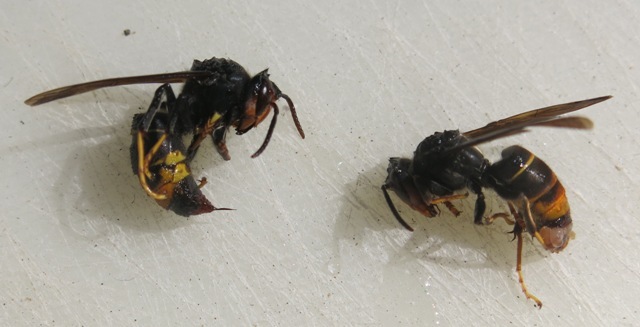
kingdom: Animalia
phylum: Arthropoda
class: Insecta
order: Hymenoptera
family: Vespidae
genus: Vespa
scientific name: Vespa velutina
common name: Asian hornet
